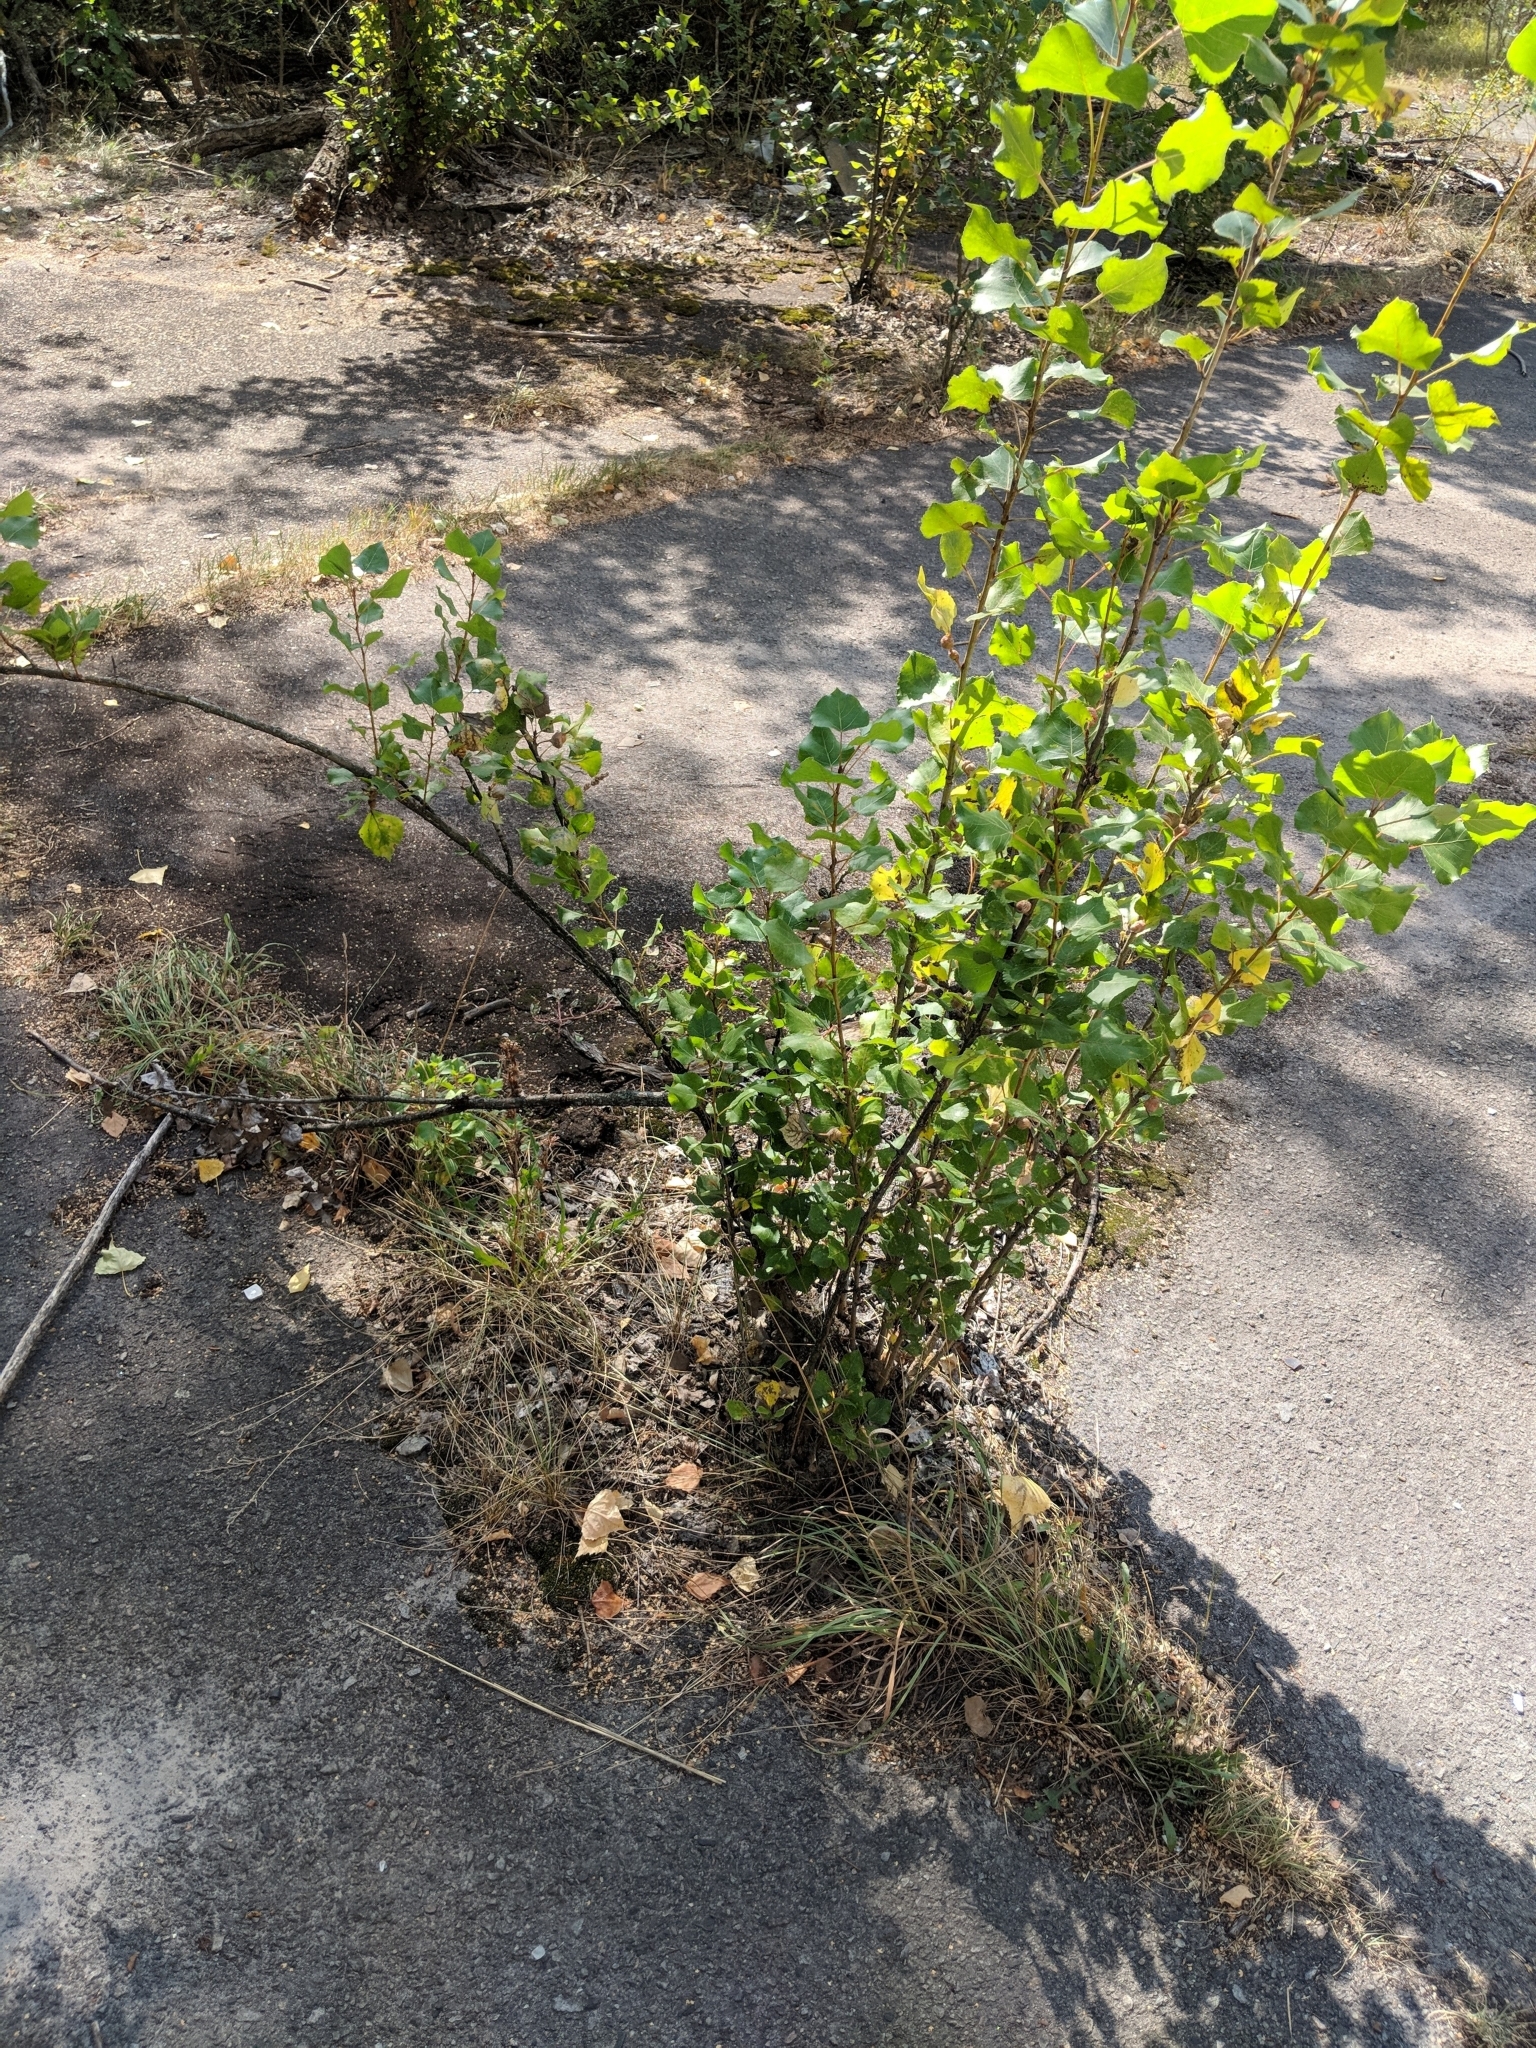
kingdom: Plantae
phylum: Tracheophyta
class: Magnoliopsida
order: Malpighiales
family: Salicaceae
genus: Populus
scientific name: Populus nigra
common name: Black poplar
